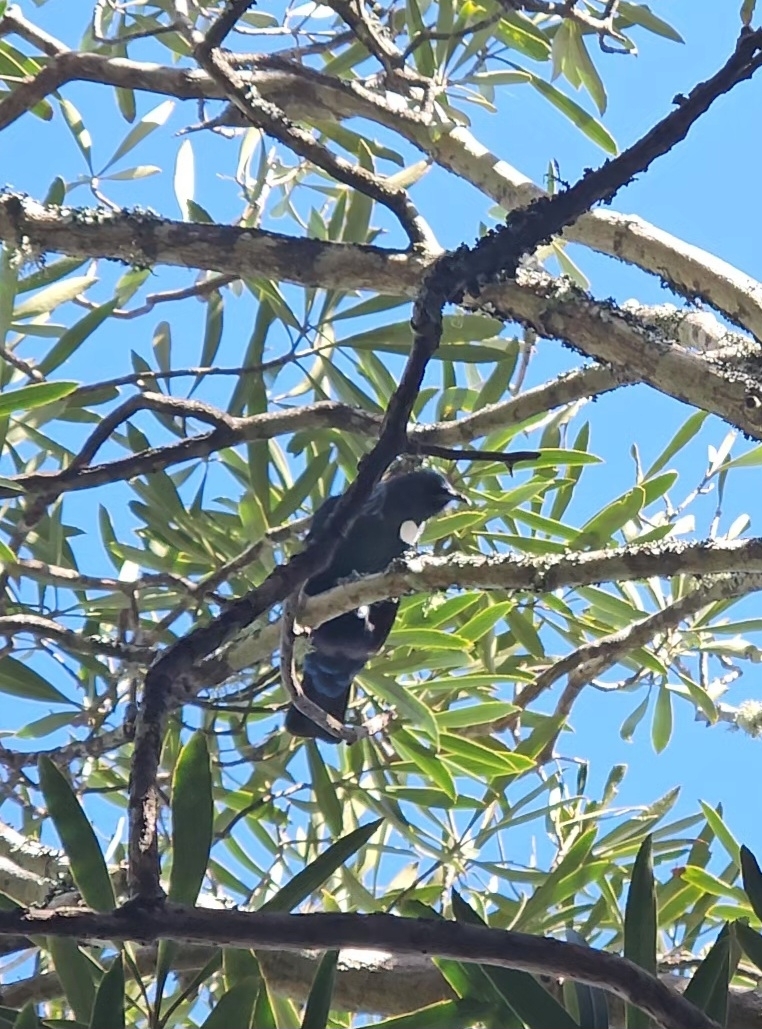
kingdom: Animalia
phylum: Chordata
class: Aves
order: Passeriformes
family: Meliphagidae
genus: Prosthemadera
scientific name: Prosthemadera novaeseelandiae
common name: Tui
